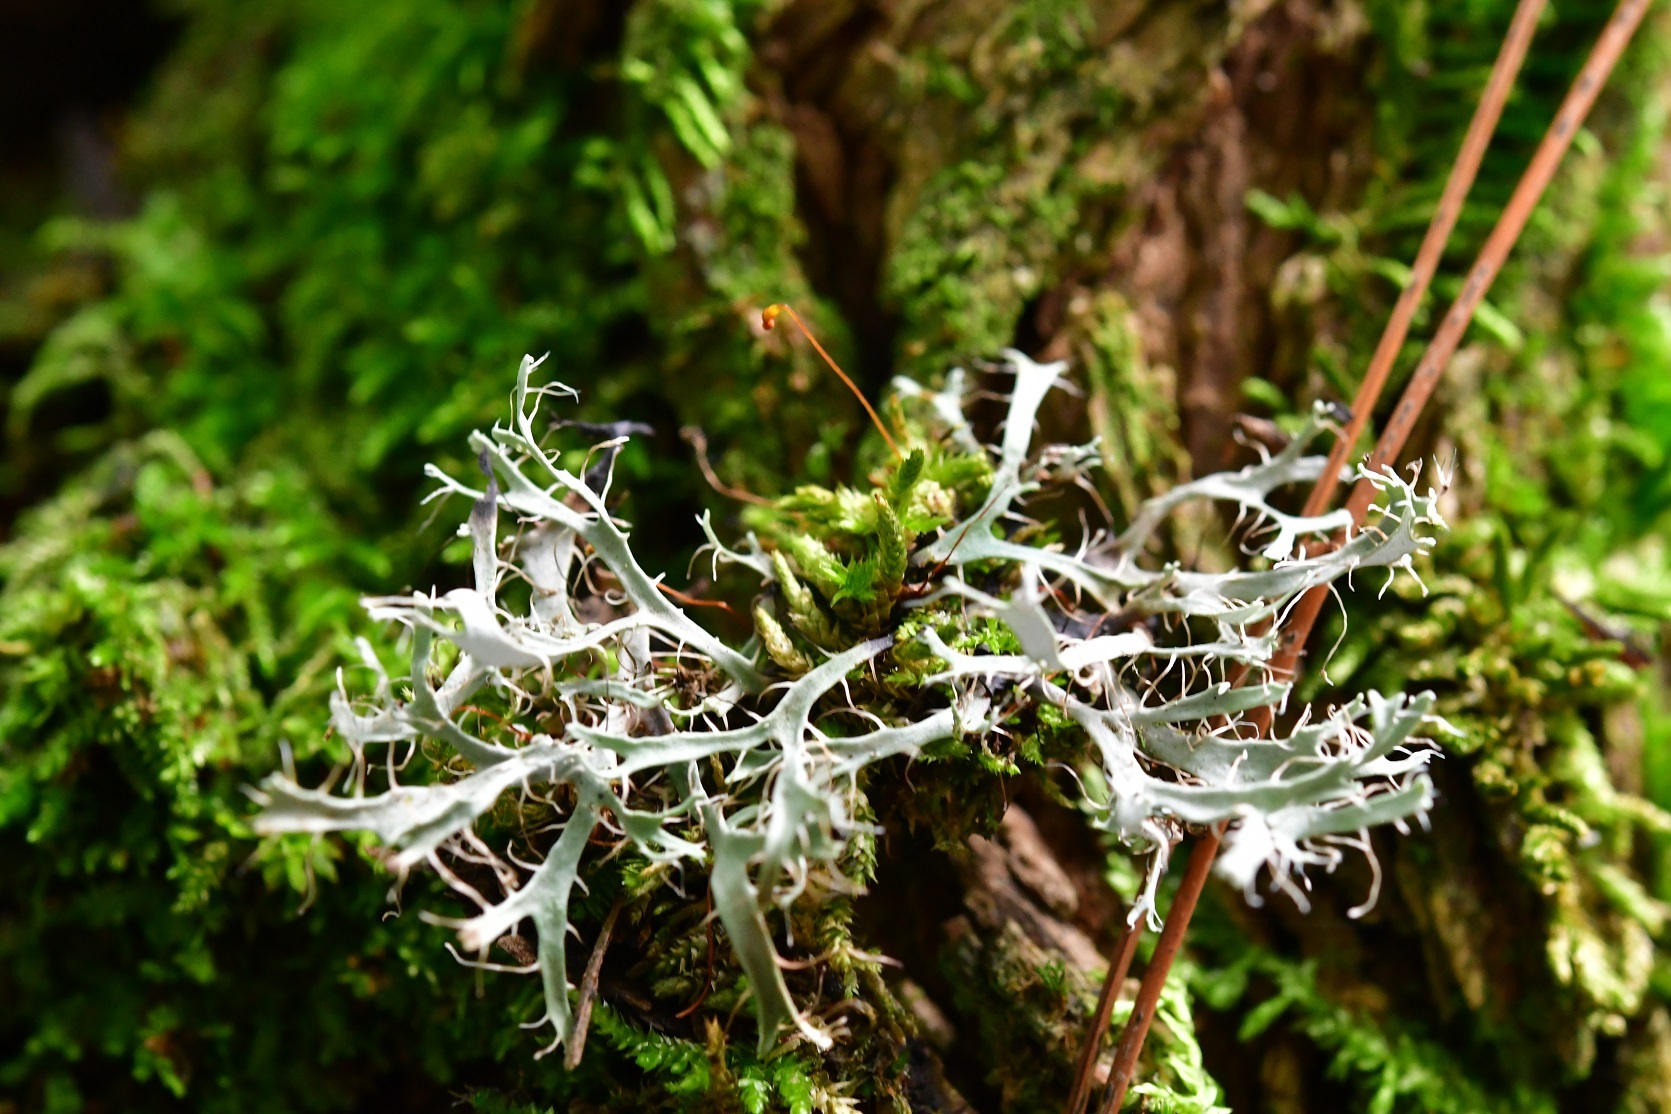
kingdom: Fungi
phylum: Ascomycota
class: Lecanoromycetes
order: Caliciales
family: Physciaceae
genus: Leucodermia
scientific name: Leucodermia leucomelos
